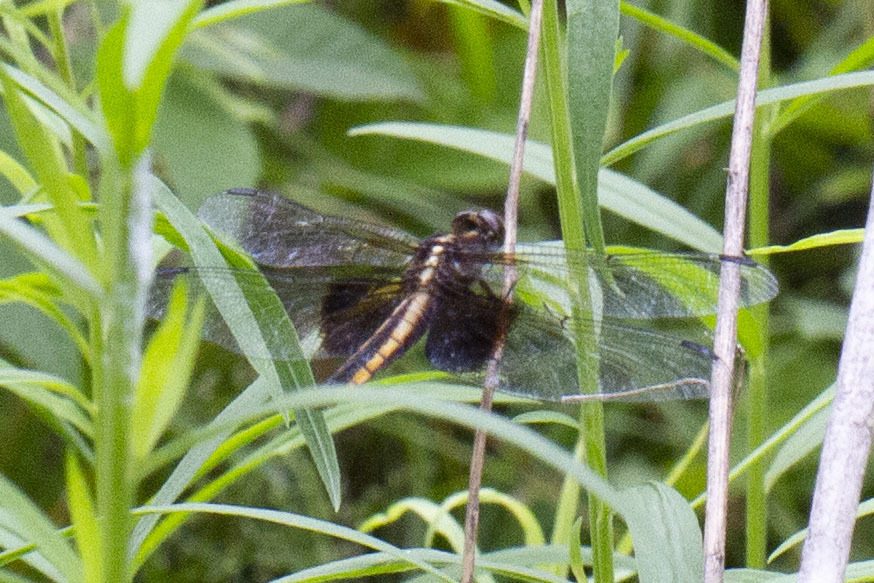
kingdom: Animalia
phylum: Arthropoda
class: Insecta
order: Odonata
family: Libellulidae
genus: Libellula
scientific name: Libellula luctuosa
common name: Widow skimmer
